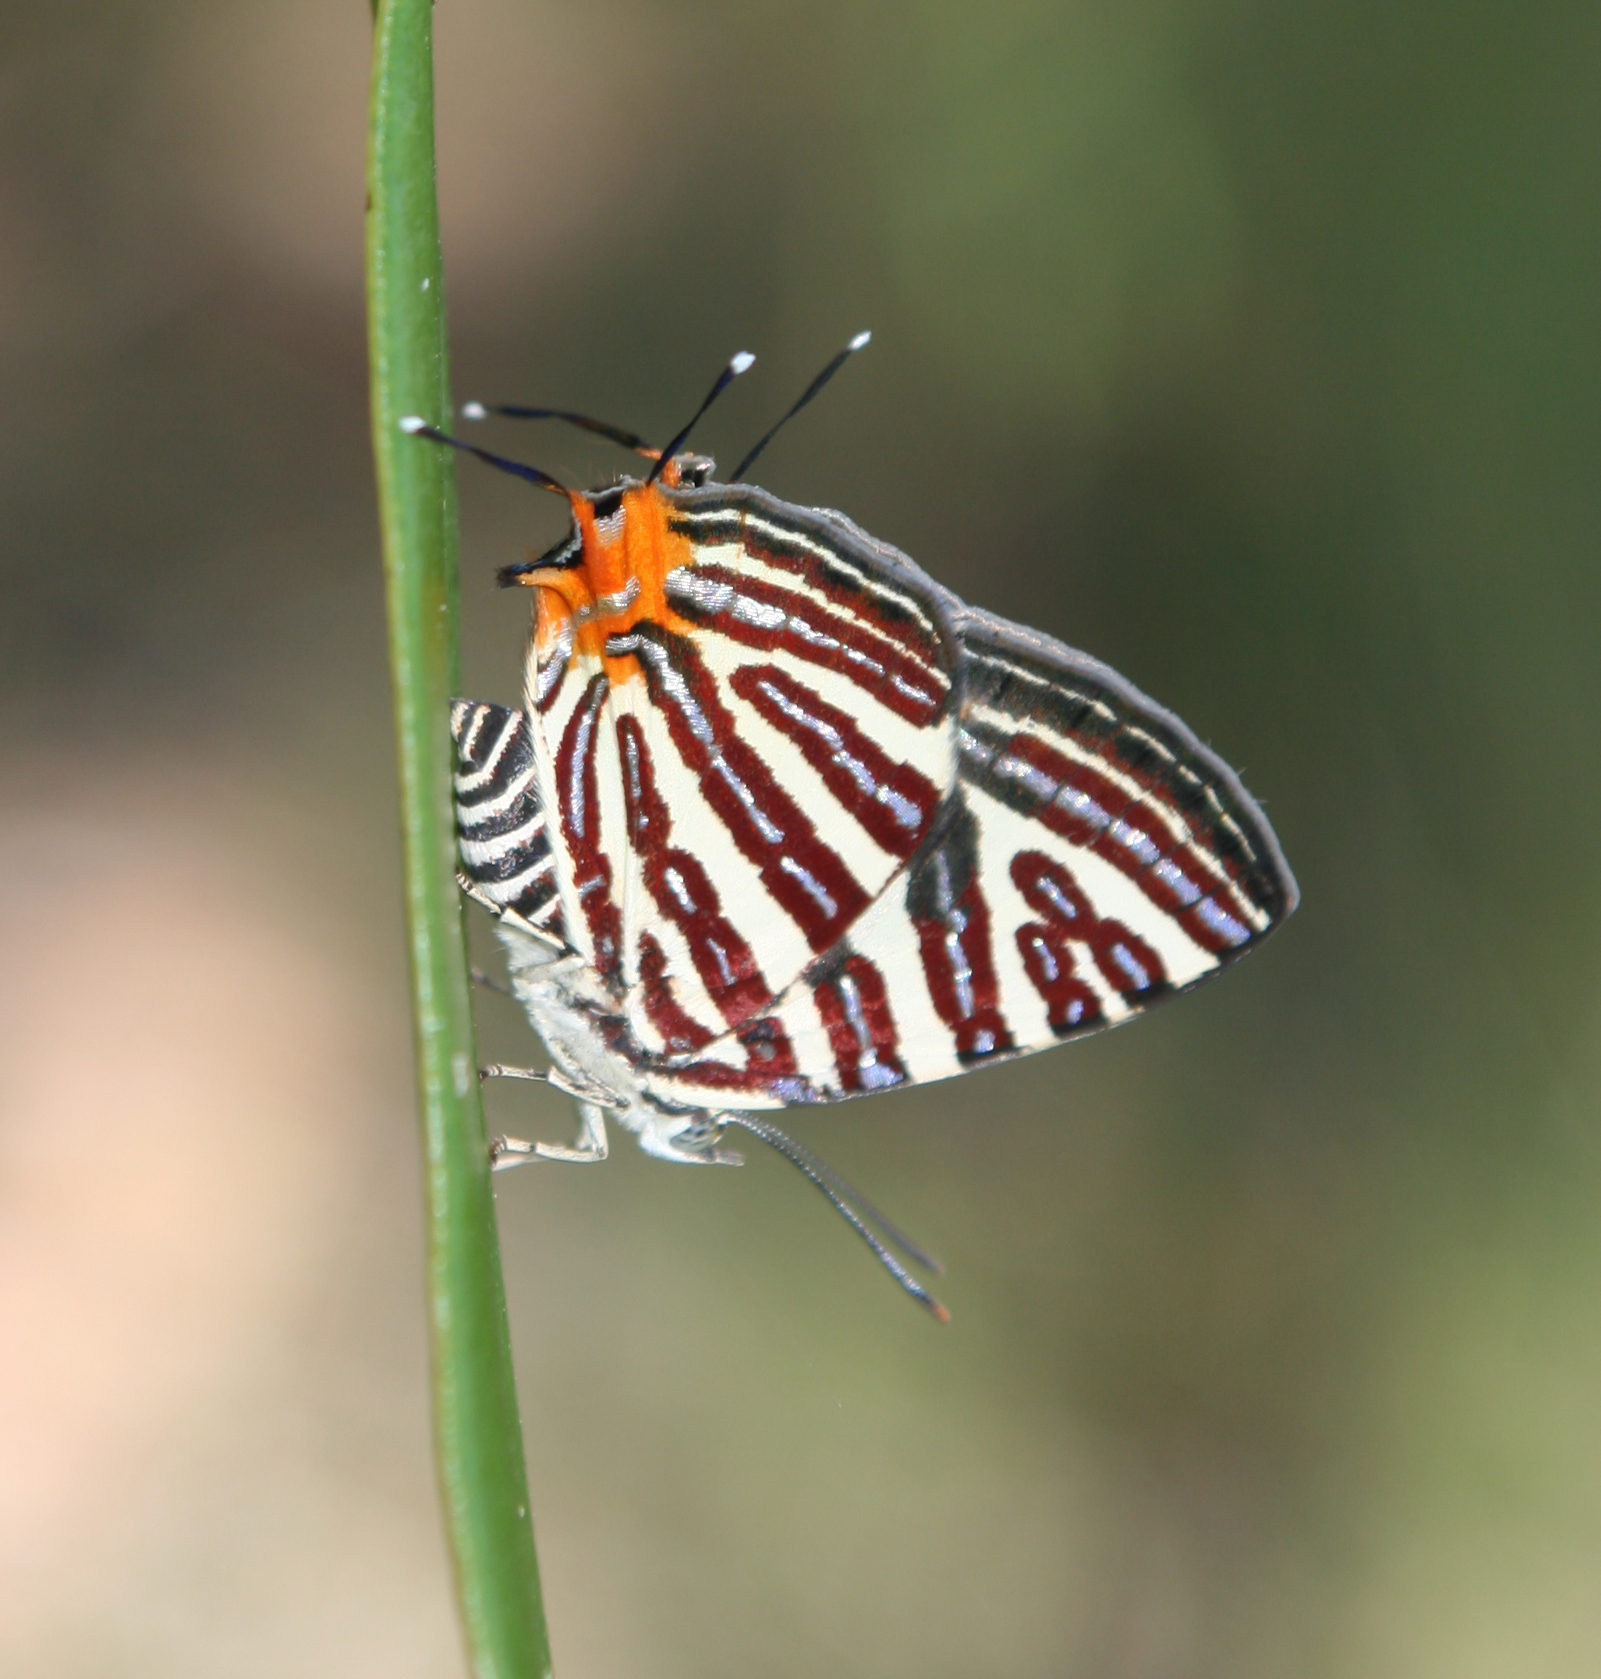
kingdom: Animalia
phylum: Arthropoda
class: Insecta
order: Lepidoptera
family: Lycaenidae
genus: Cigaritis
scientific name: Cigaritis lohita
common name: Long-banded silverline
